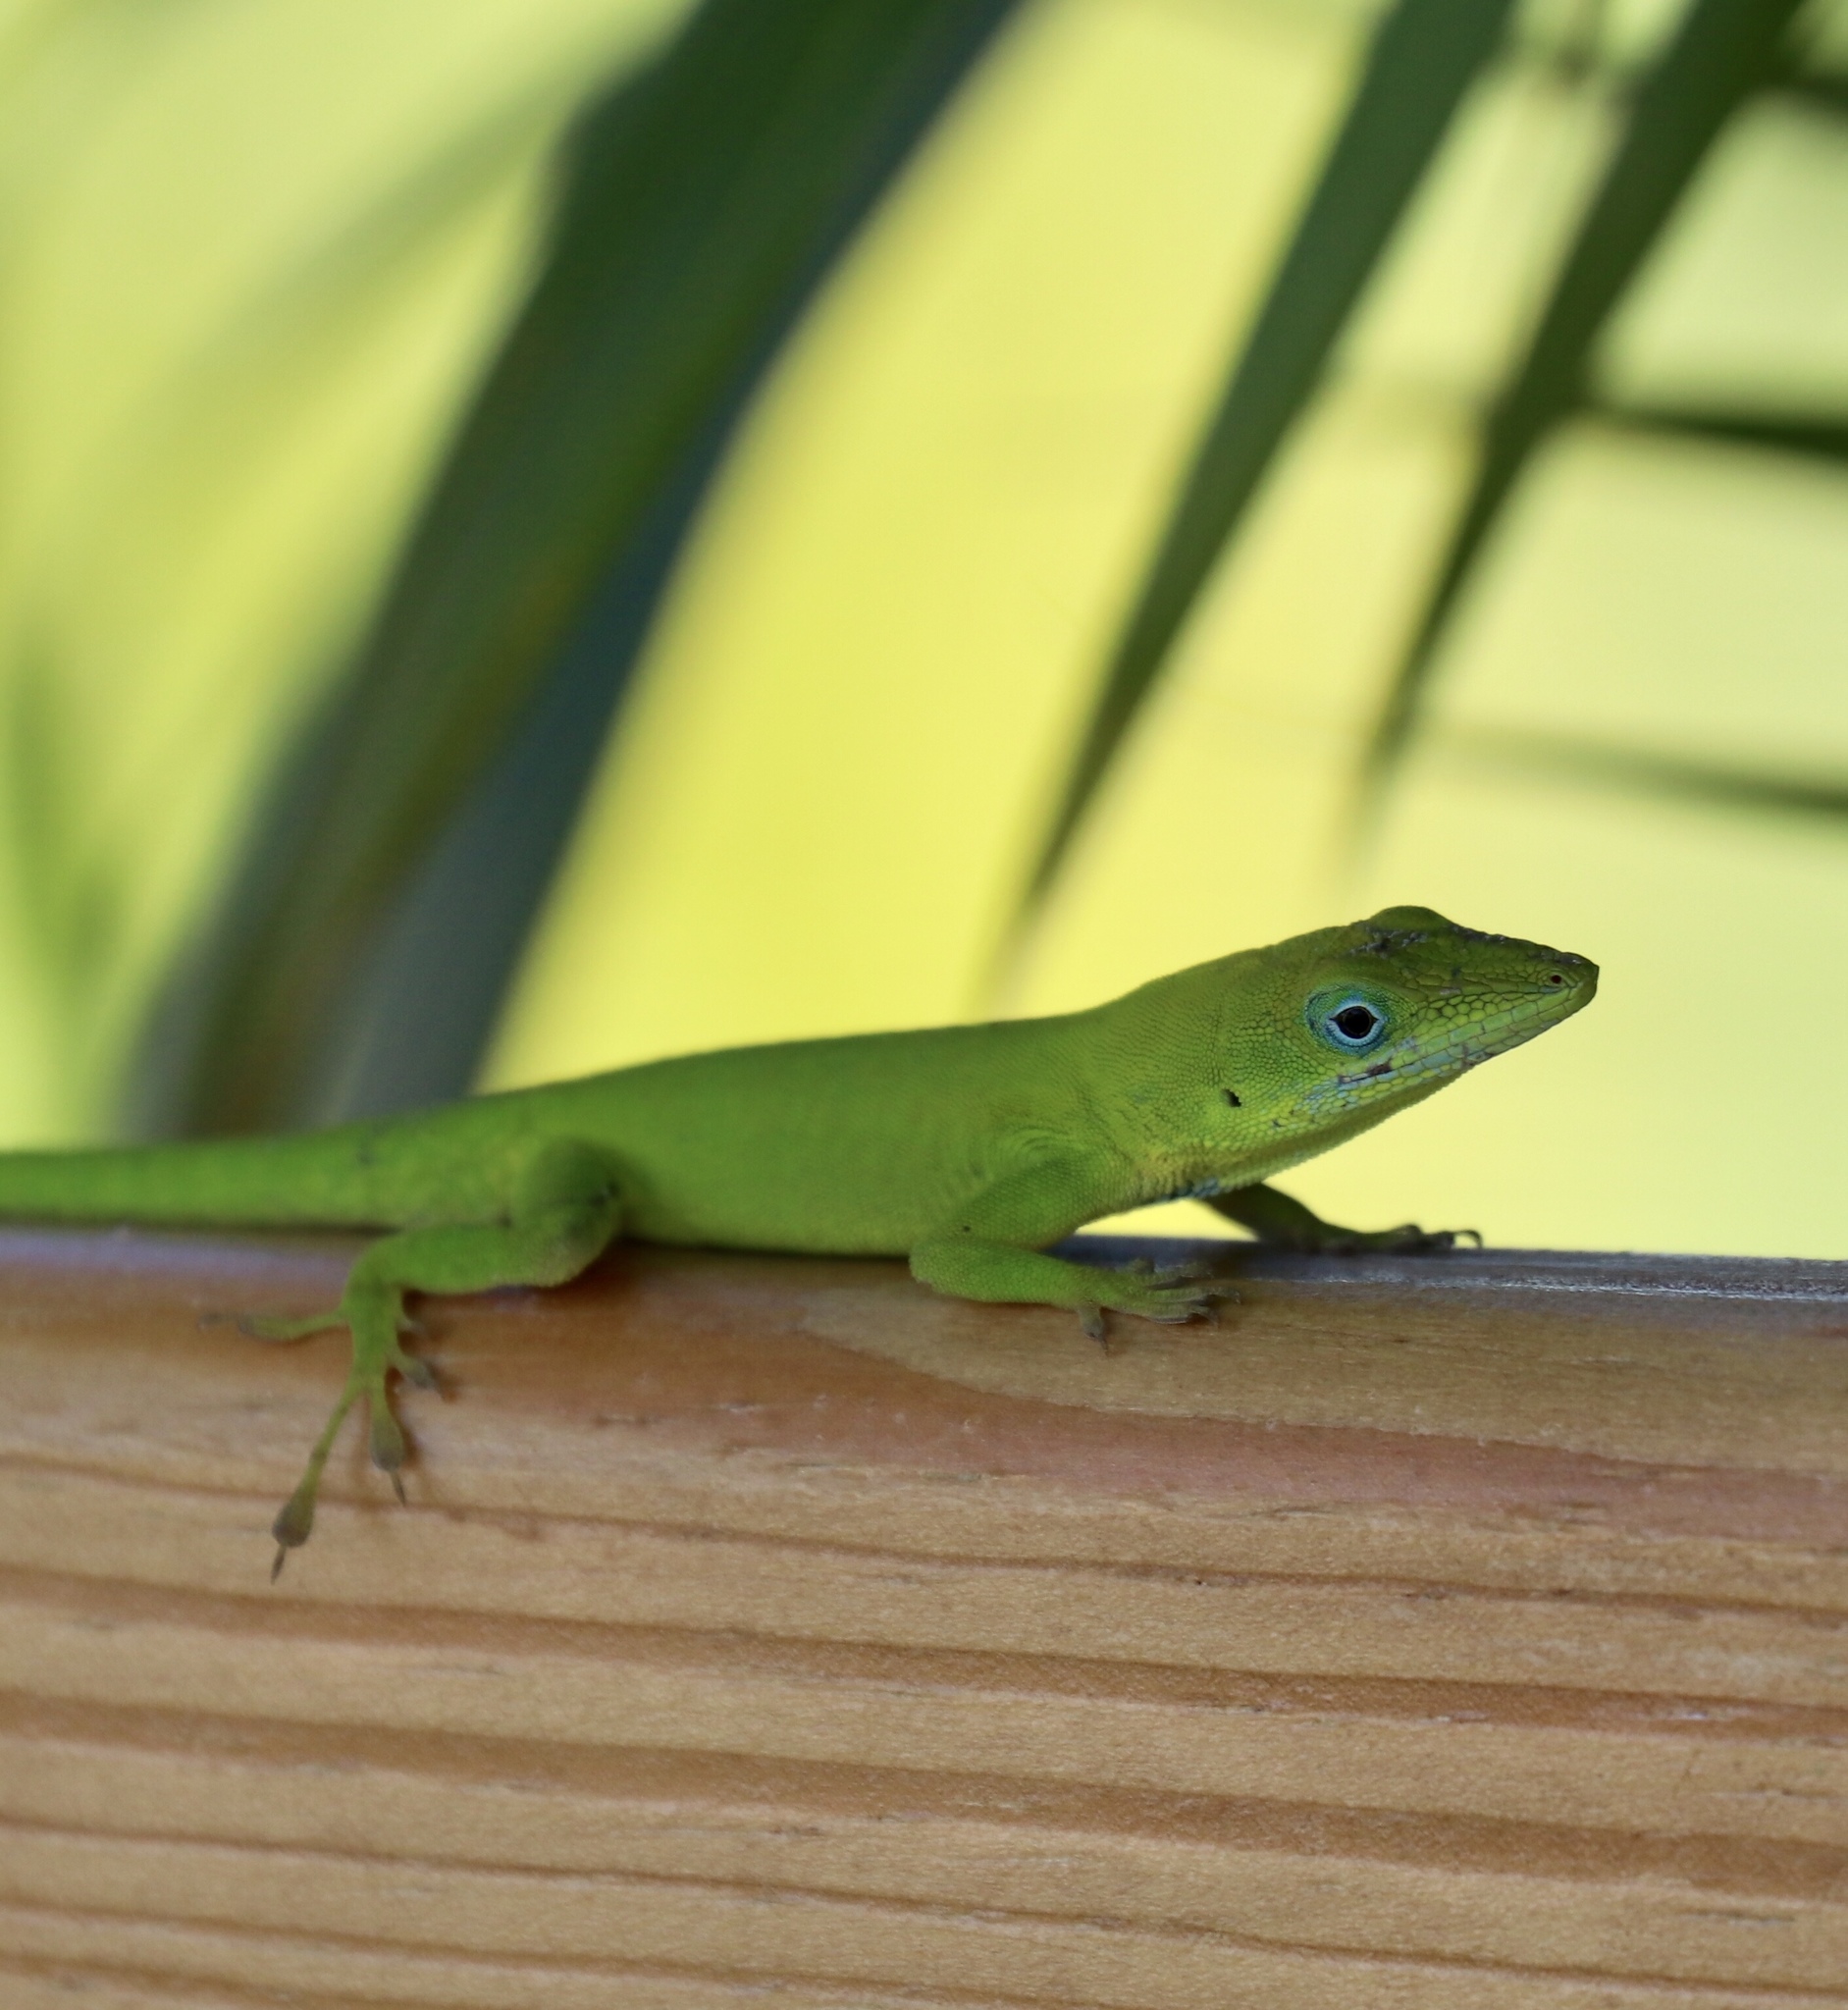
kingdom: Animalia
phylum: Chordata
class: Squamata
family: Dactyloidae
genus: Anolis
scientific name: Anolis callainus
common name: Dominican green anole
